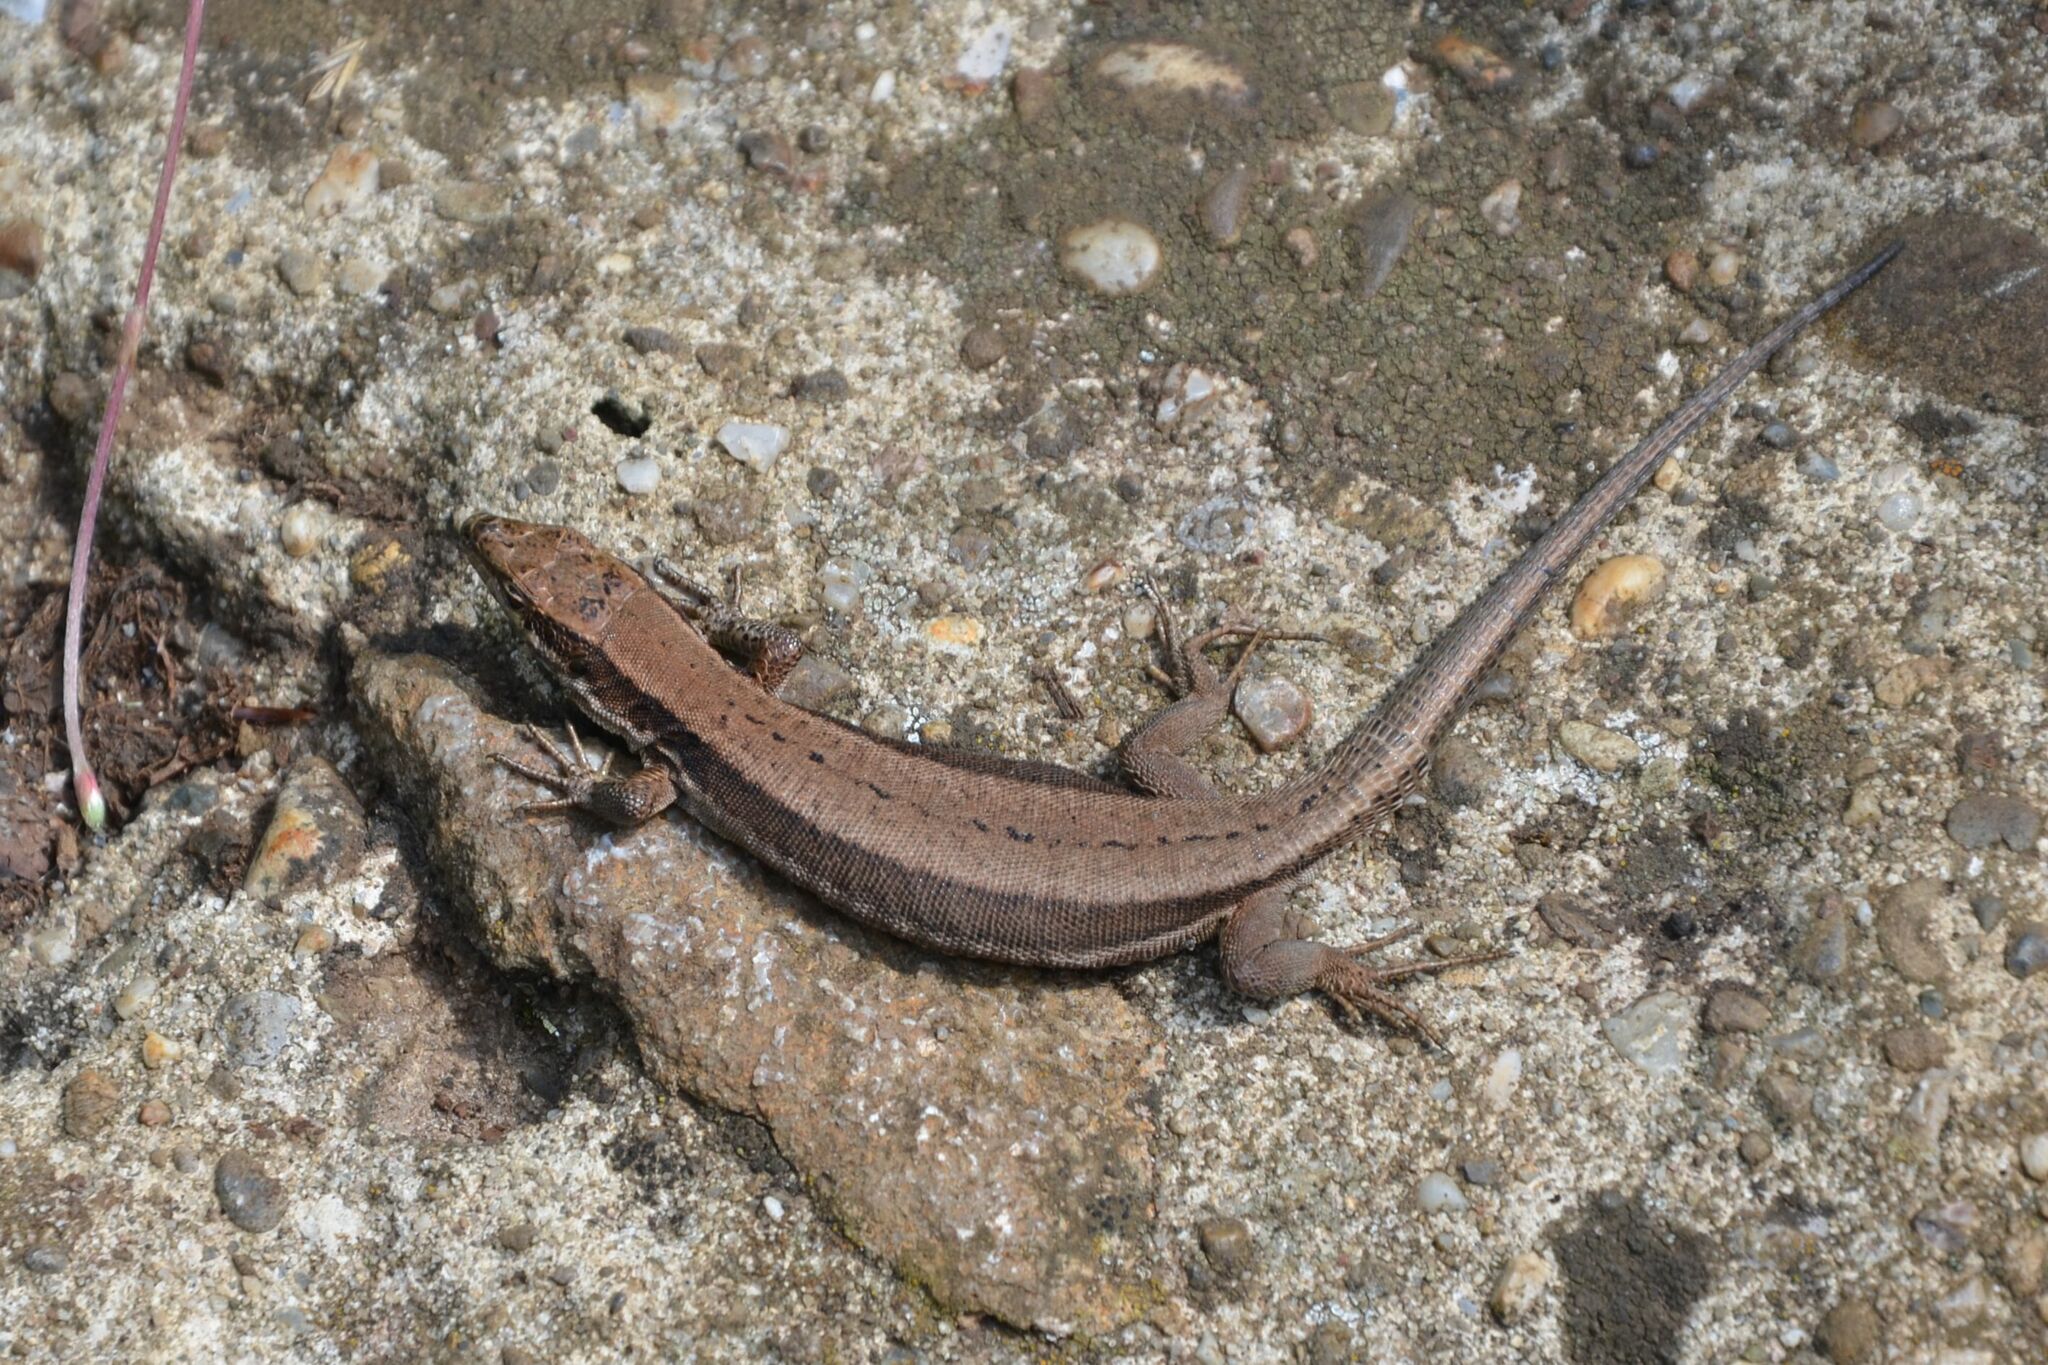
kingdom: Animalia
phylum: Chordata
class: Squamata
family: Lacertidae
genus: Podarcis
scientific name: Podarcis muralis
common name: Common wall lizard
